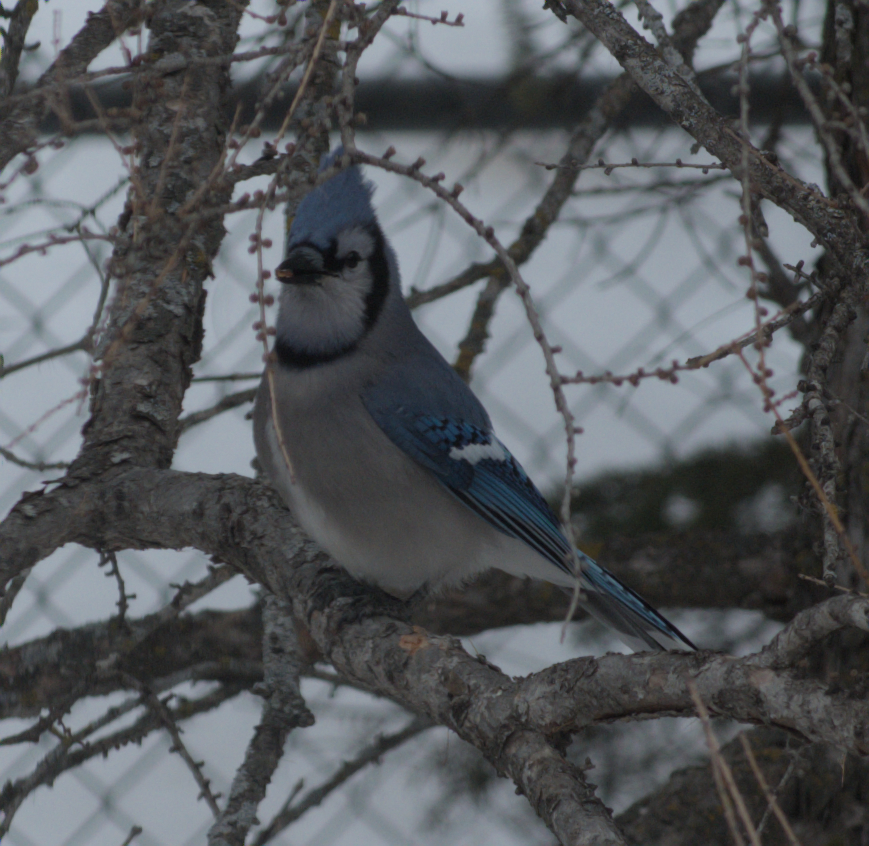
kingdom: Animalia
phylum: Chordata
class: Aves
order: Passeriformes
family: Corvidae
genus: Cyanocitta
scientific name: Cyanocitta cristata
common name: Blue jay
